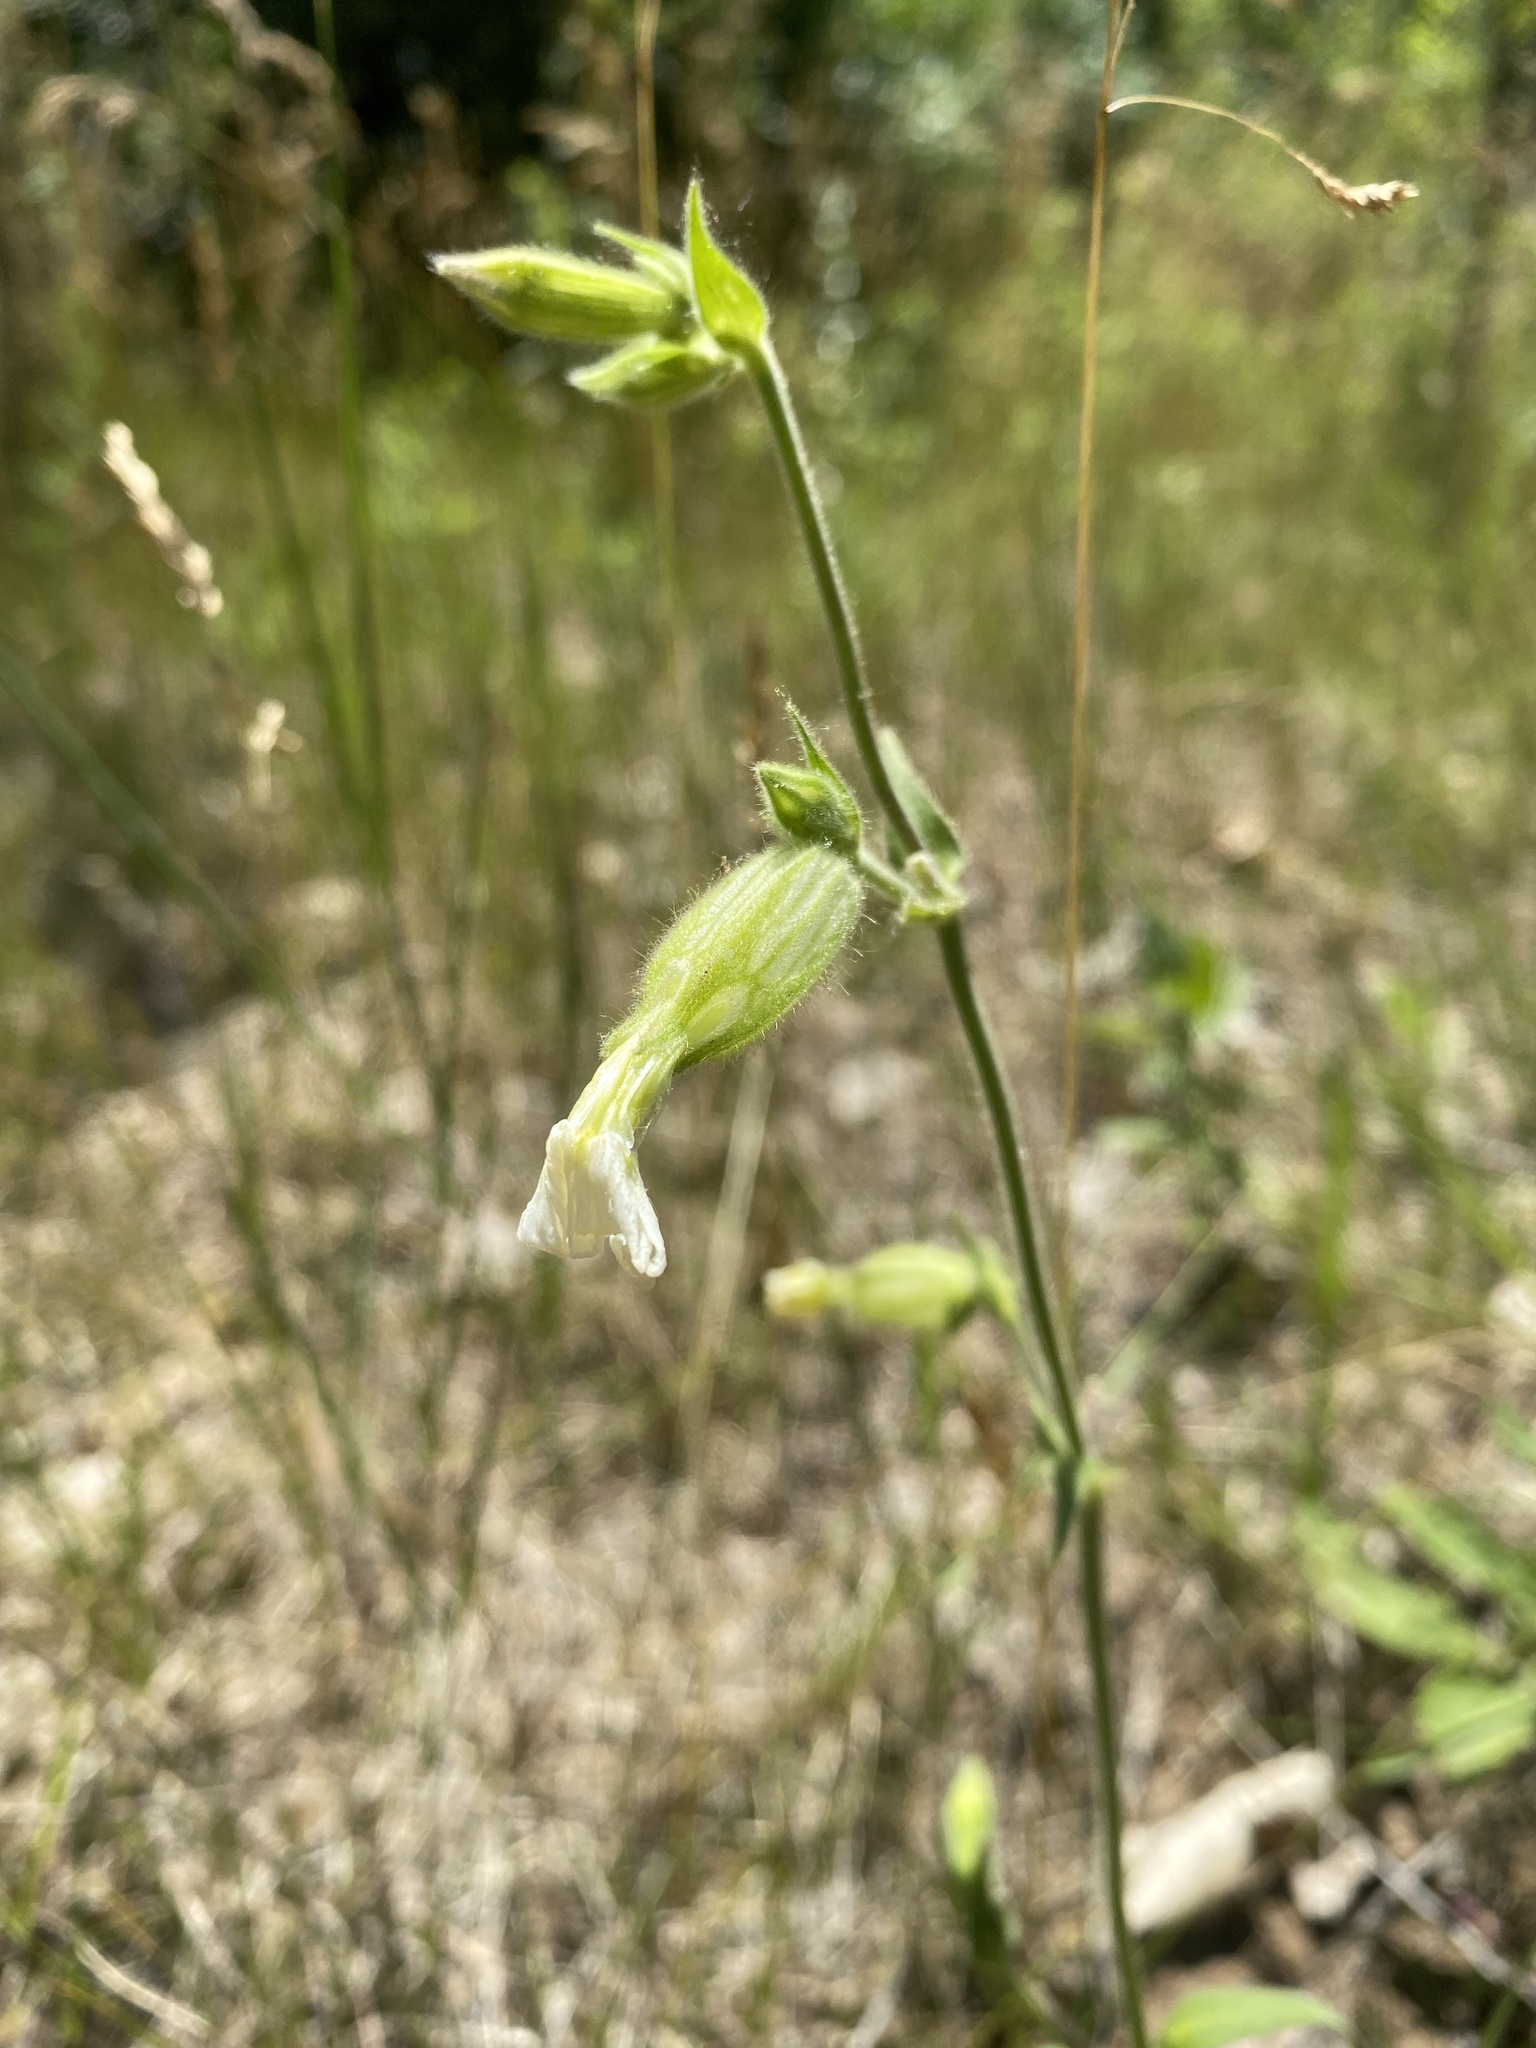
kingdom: Plantae
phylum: Tracheophyta
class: Magnoliopsida
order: Caryophyllales
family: Caryophyllaceae
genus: Silene
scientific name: Silene latifolia
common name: White campion
